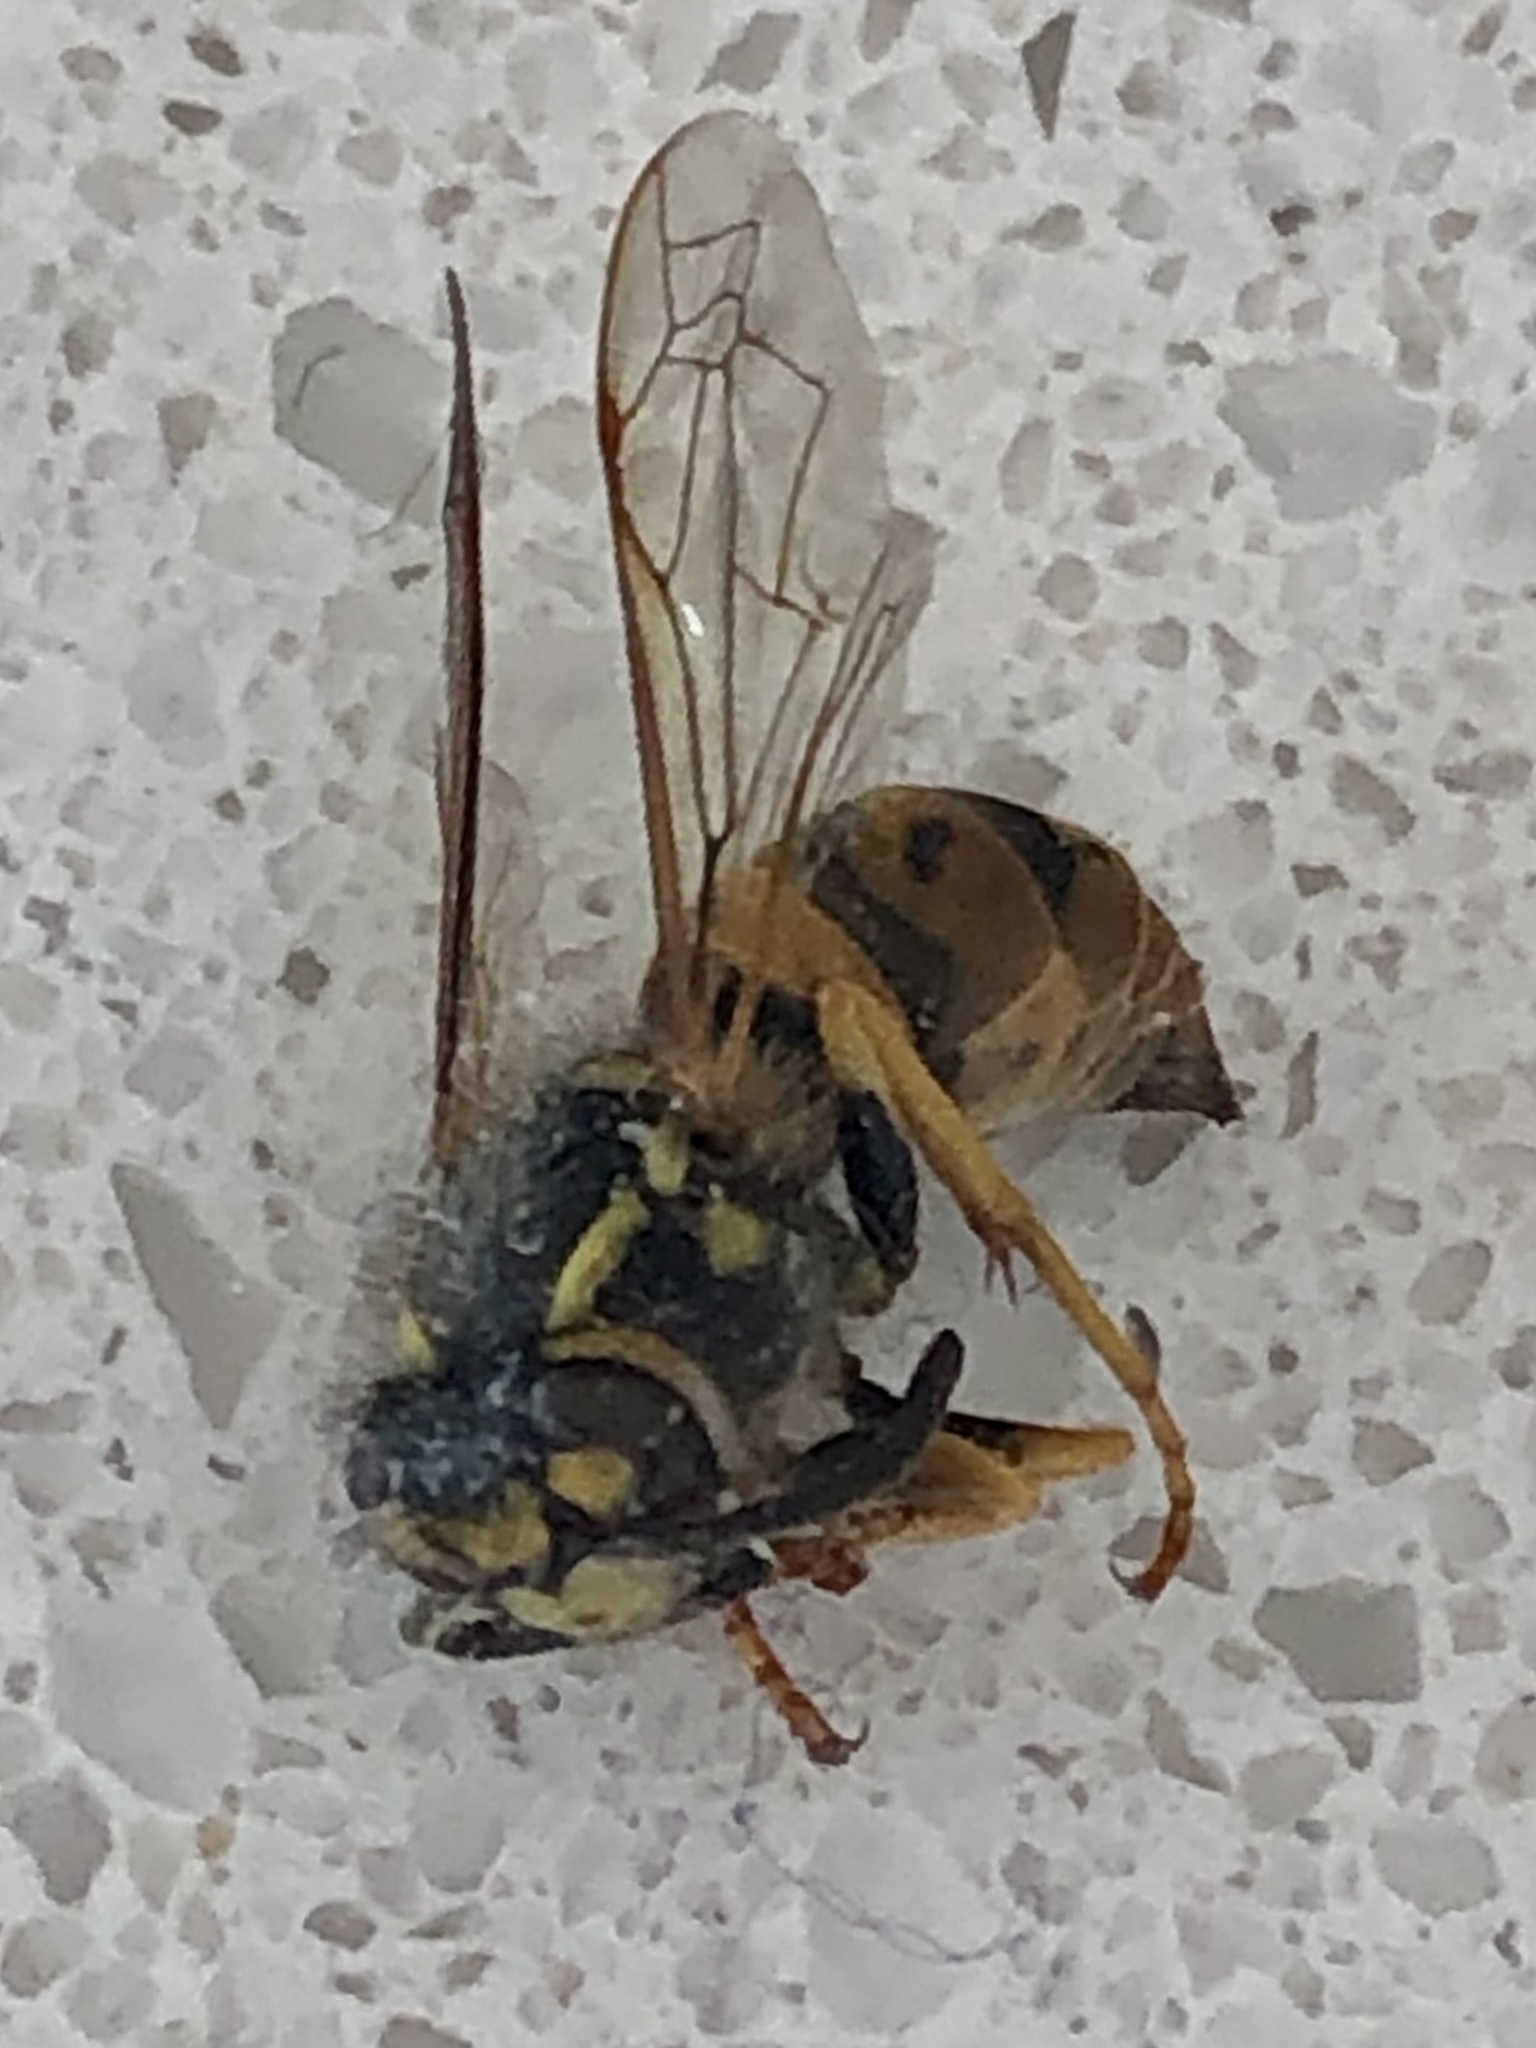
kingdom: Animalia
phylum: Arthropoda
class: Insecta
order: Hymenoptera
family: Vespidae
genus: Vespula
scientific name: Vespula germanica
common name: German wasp
